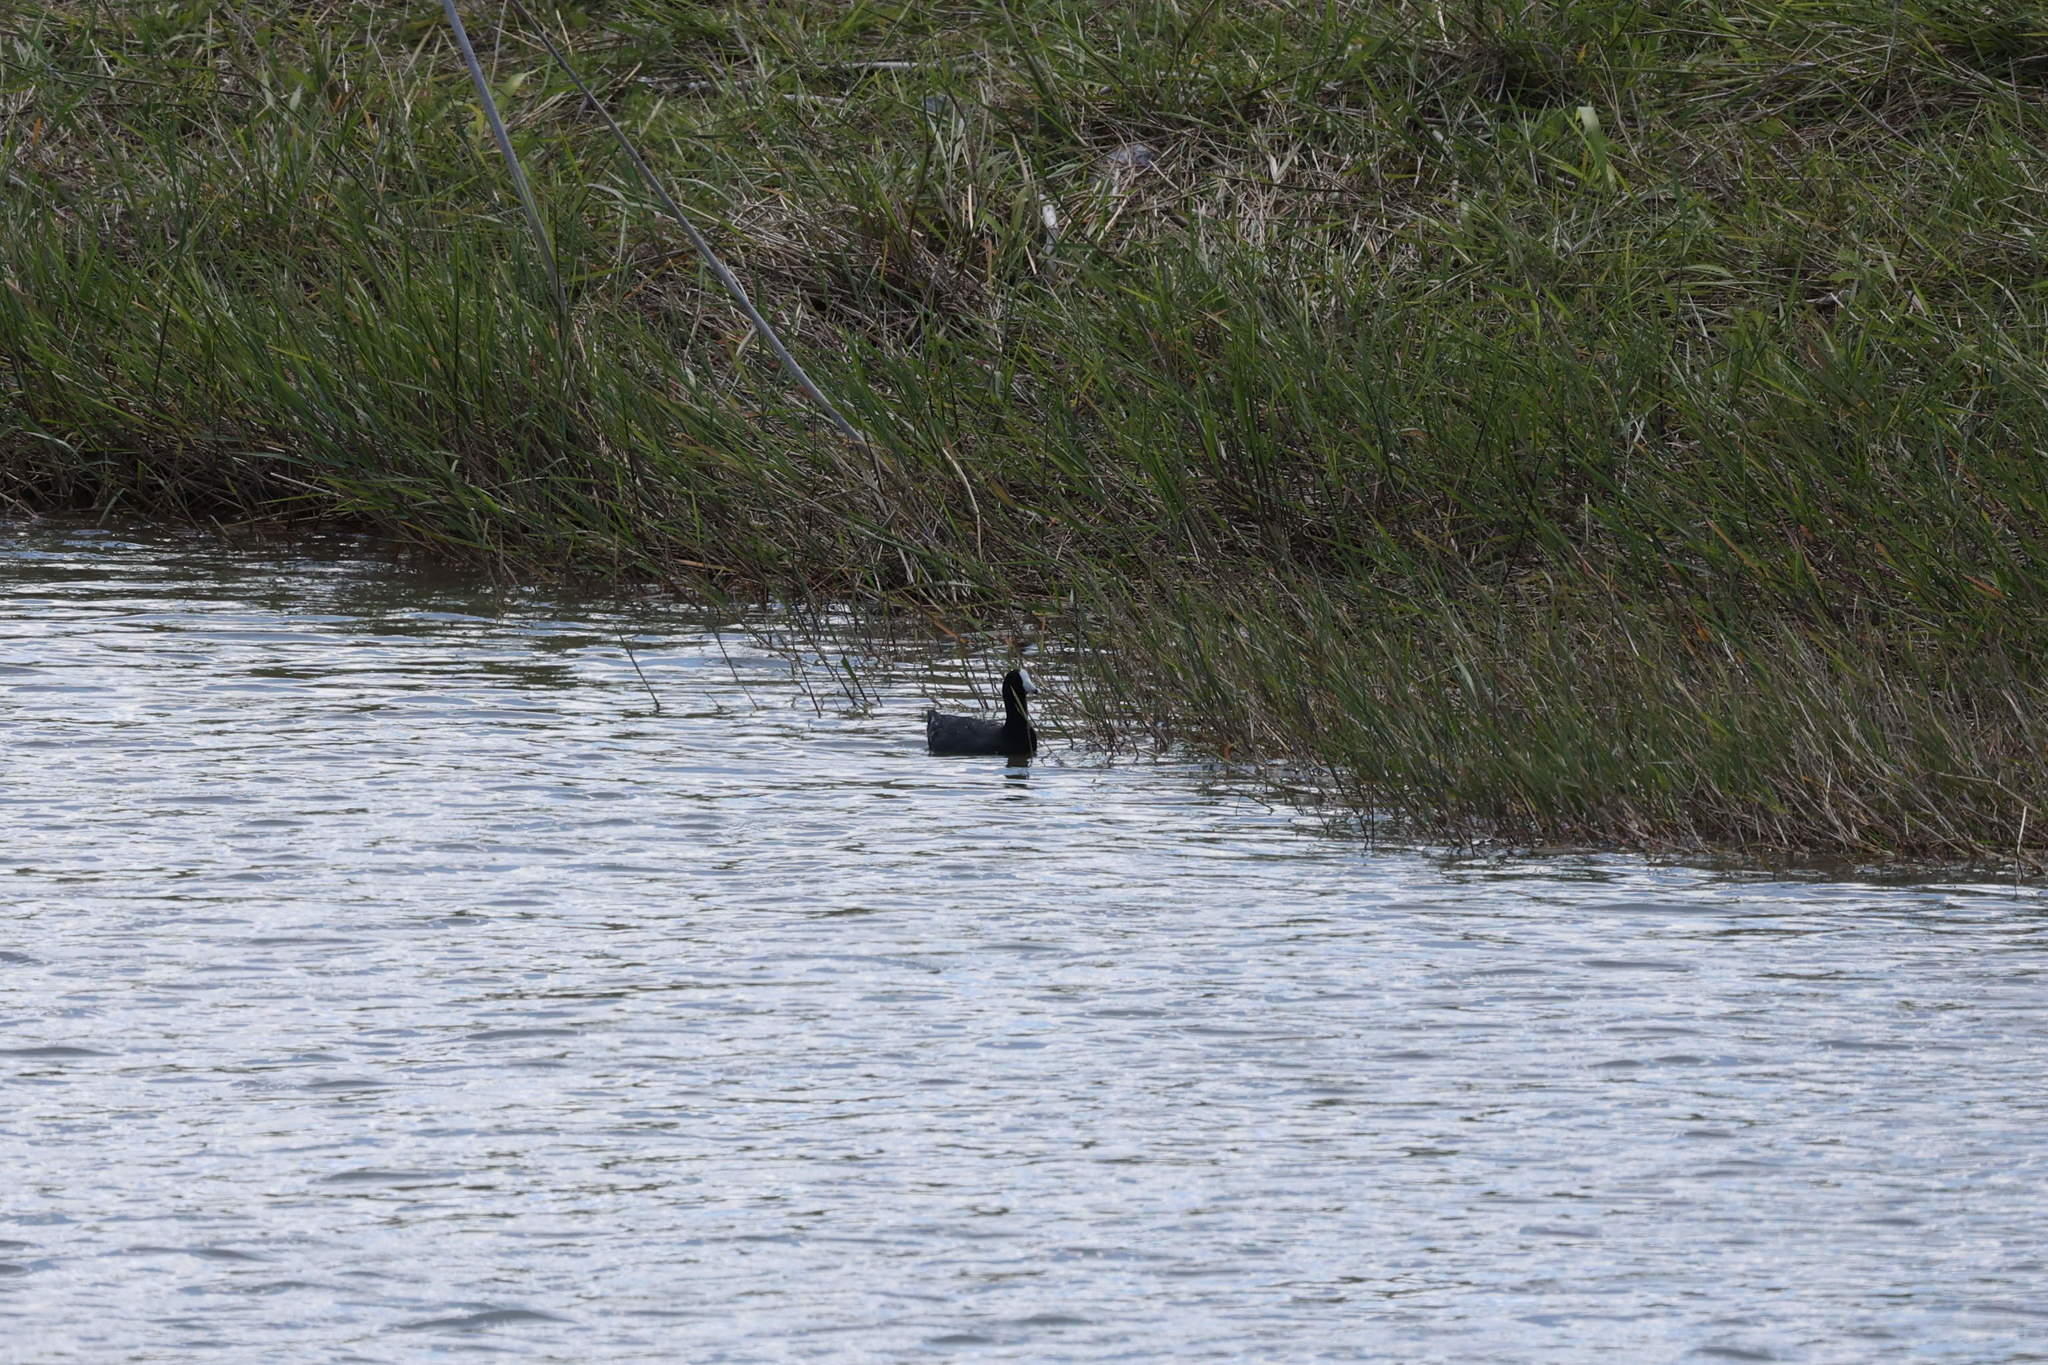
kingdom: Animalia
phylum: Chordata
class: Aves
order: Gruiformes
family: Rallidae
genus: Fulica
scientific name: Fulica americana
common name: American coot
